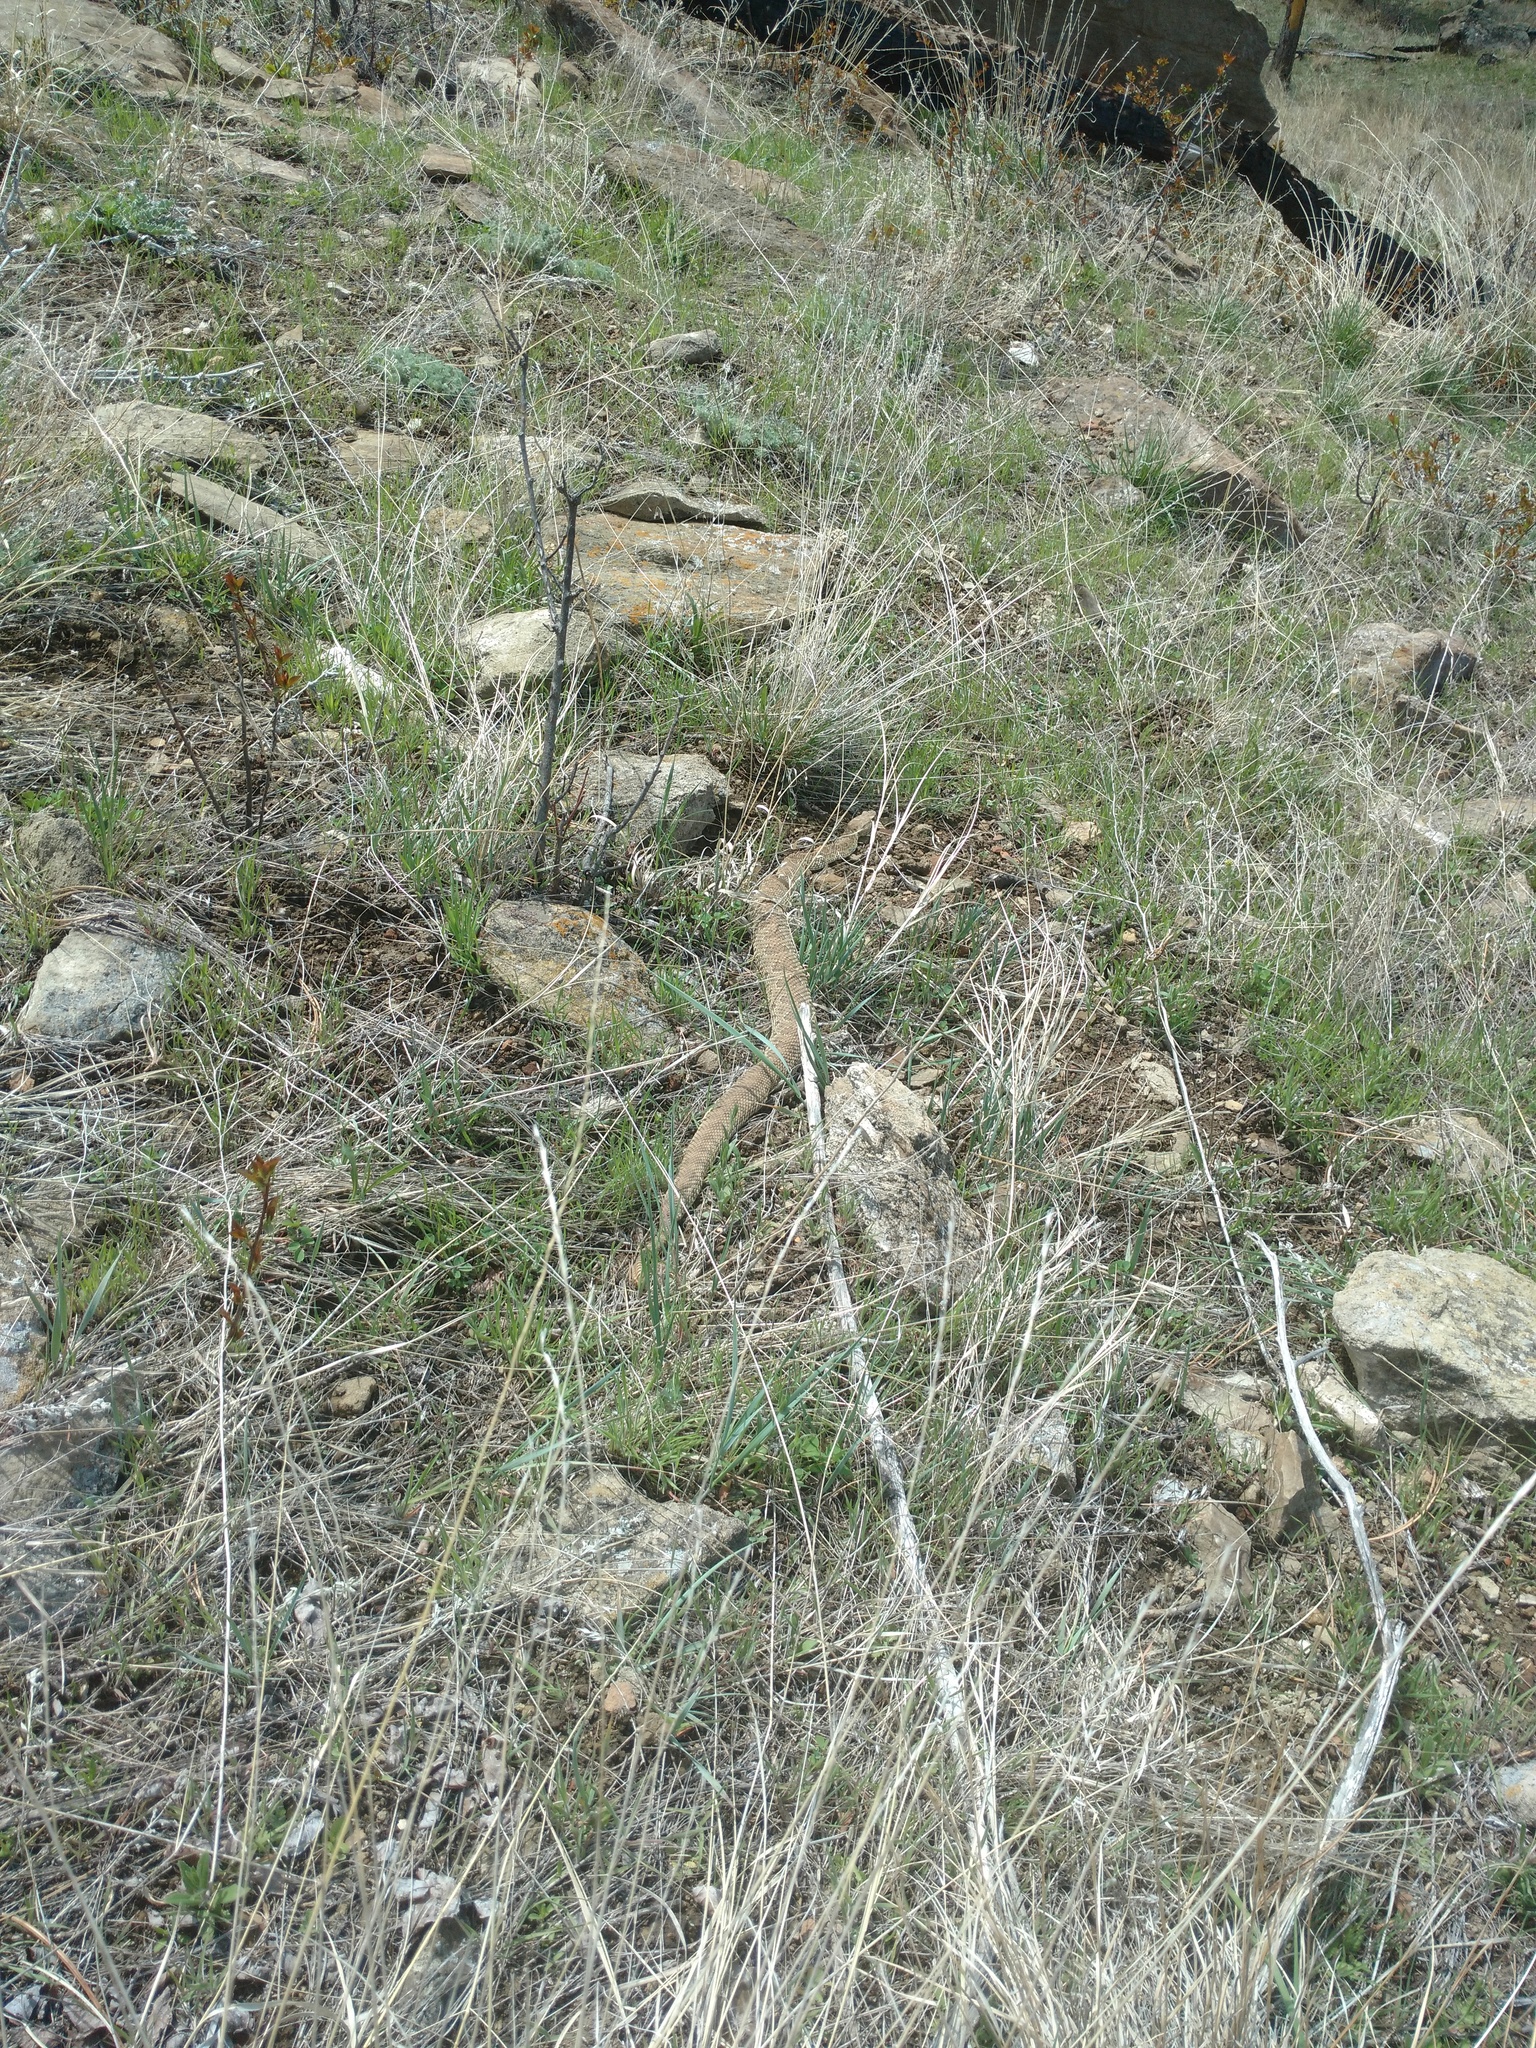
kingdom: Animalia
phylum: Chordata
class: Squamata
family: Viperidae
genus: Crotalus
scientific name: Crotalus viridis
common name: Prairie rattlesnake
